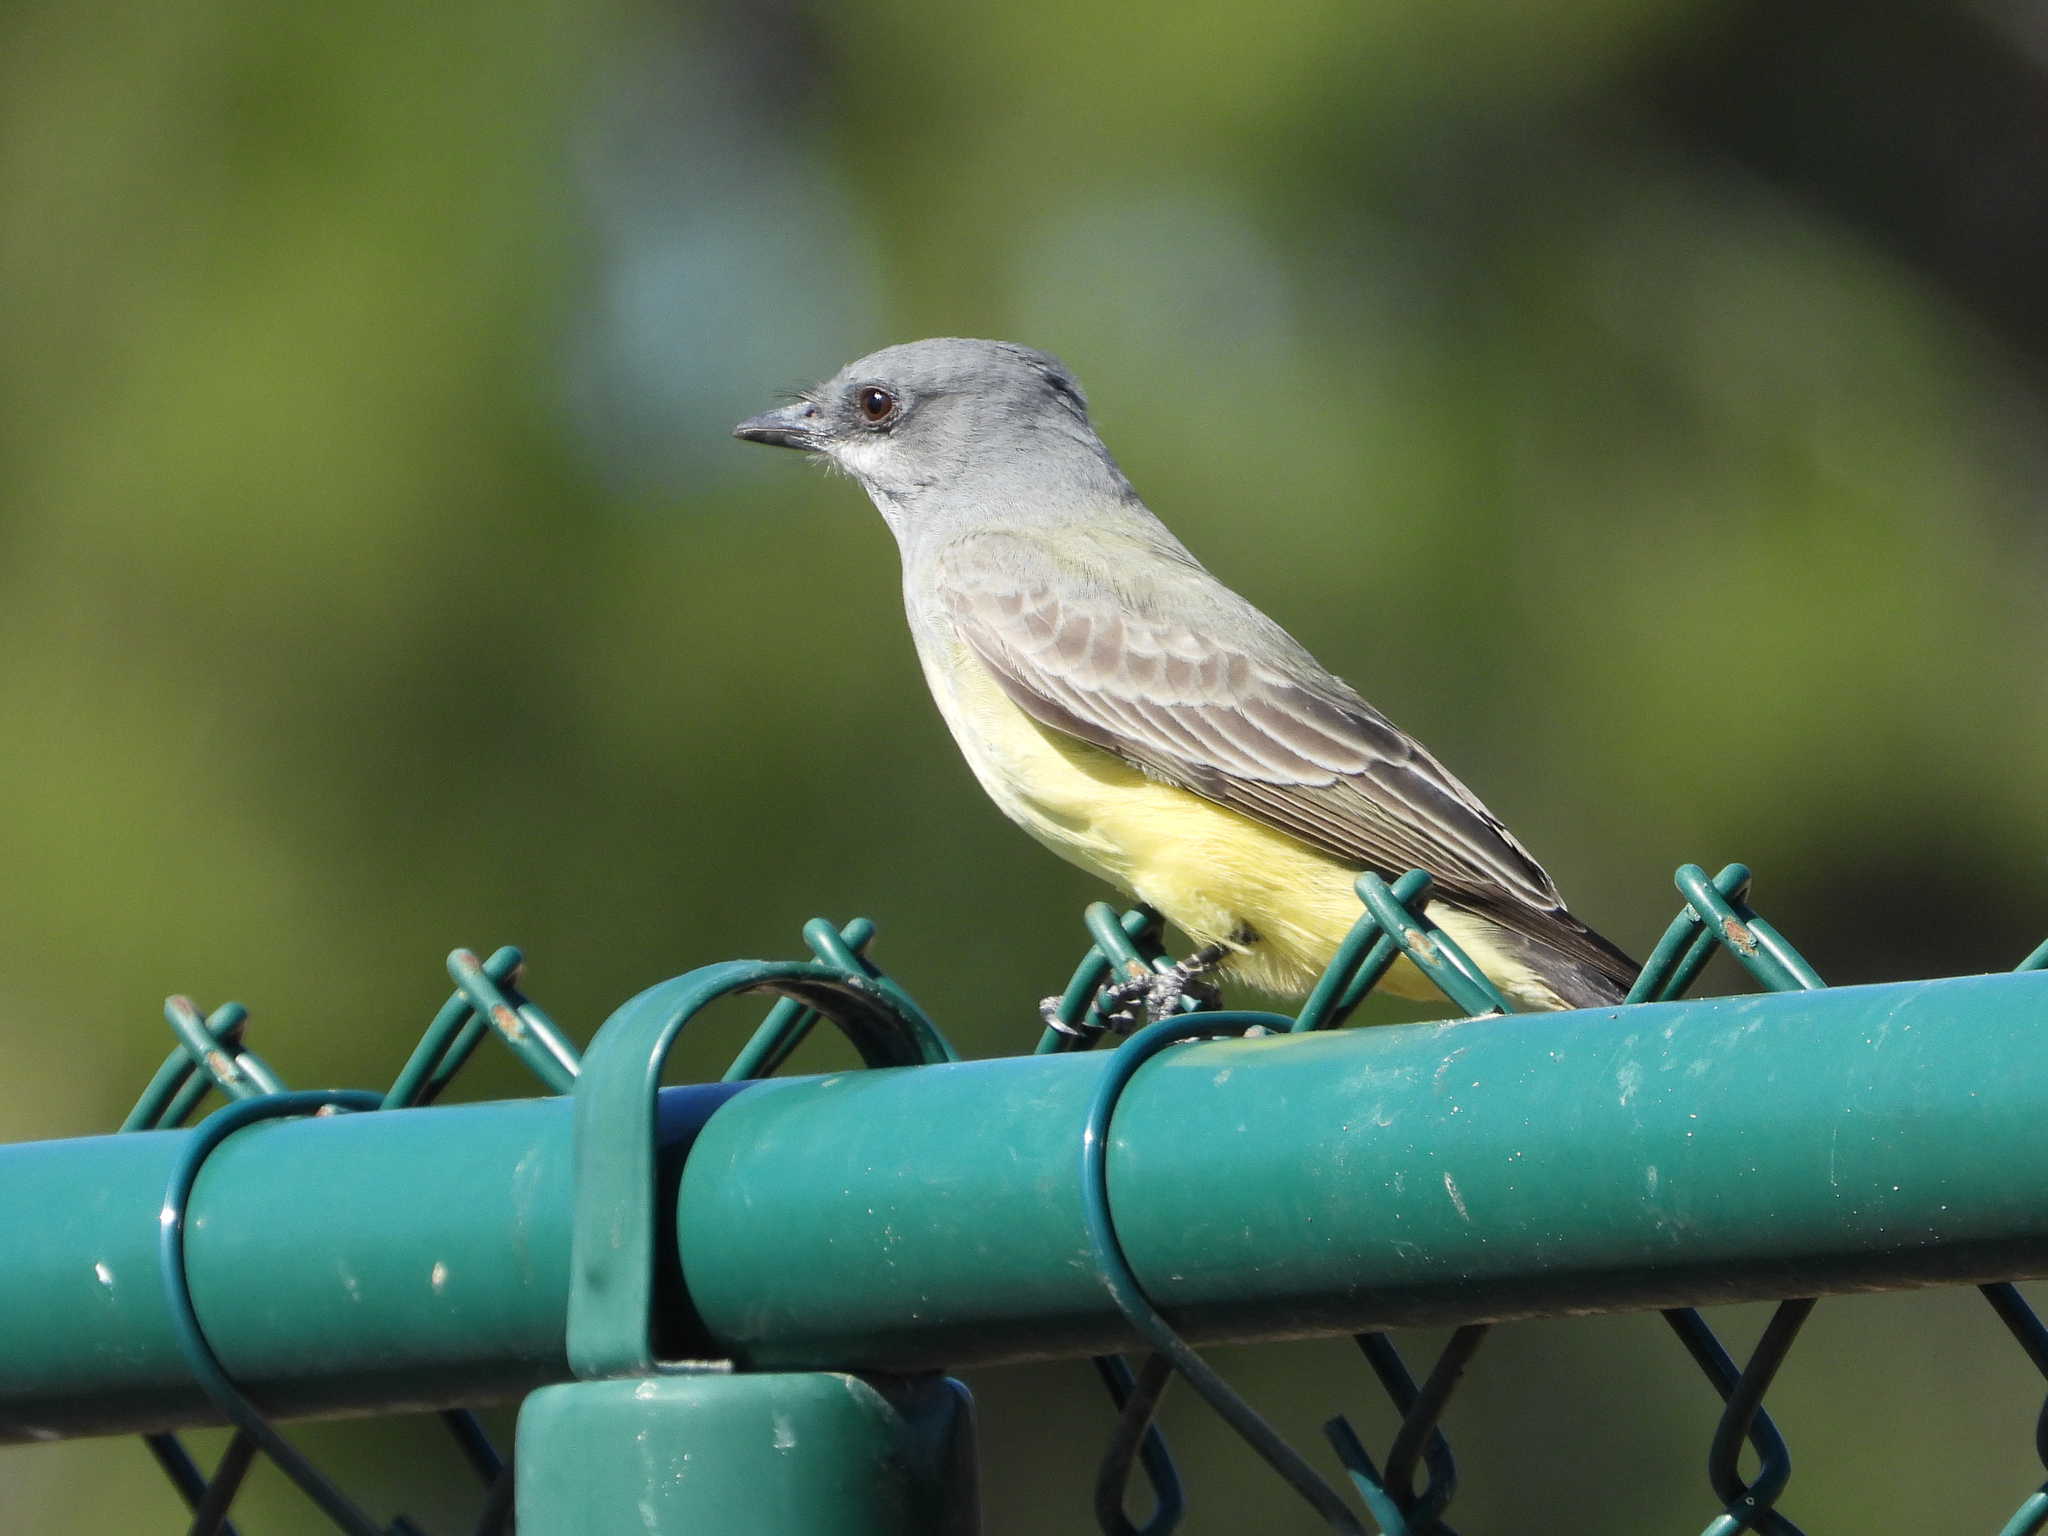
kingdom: Animalia
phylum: Chordata
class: Aves
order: Passeriformes
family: Tyrannidae
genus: Tyrannus
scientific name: Tyrannus vociferans
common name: Cassin's kingbird
